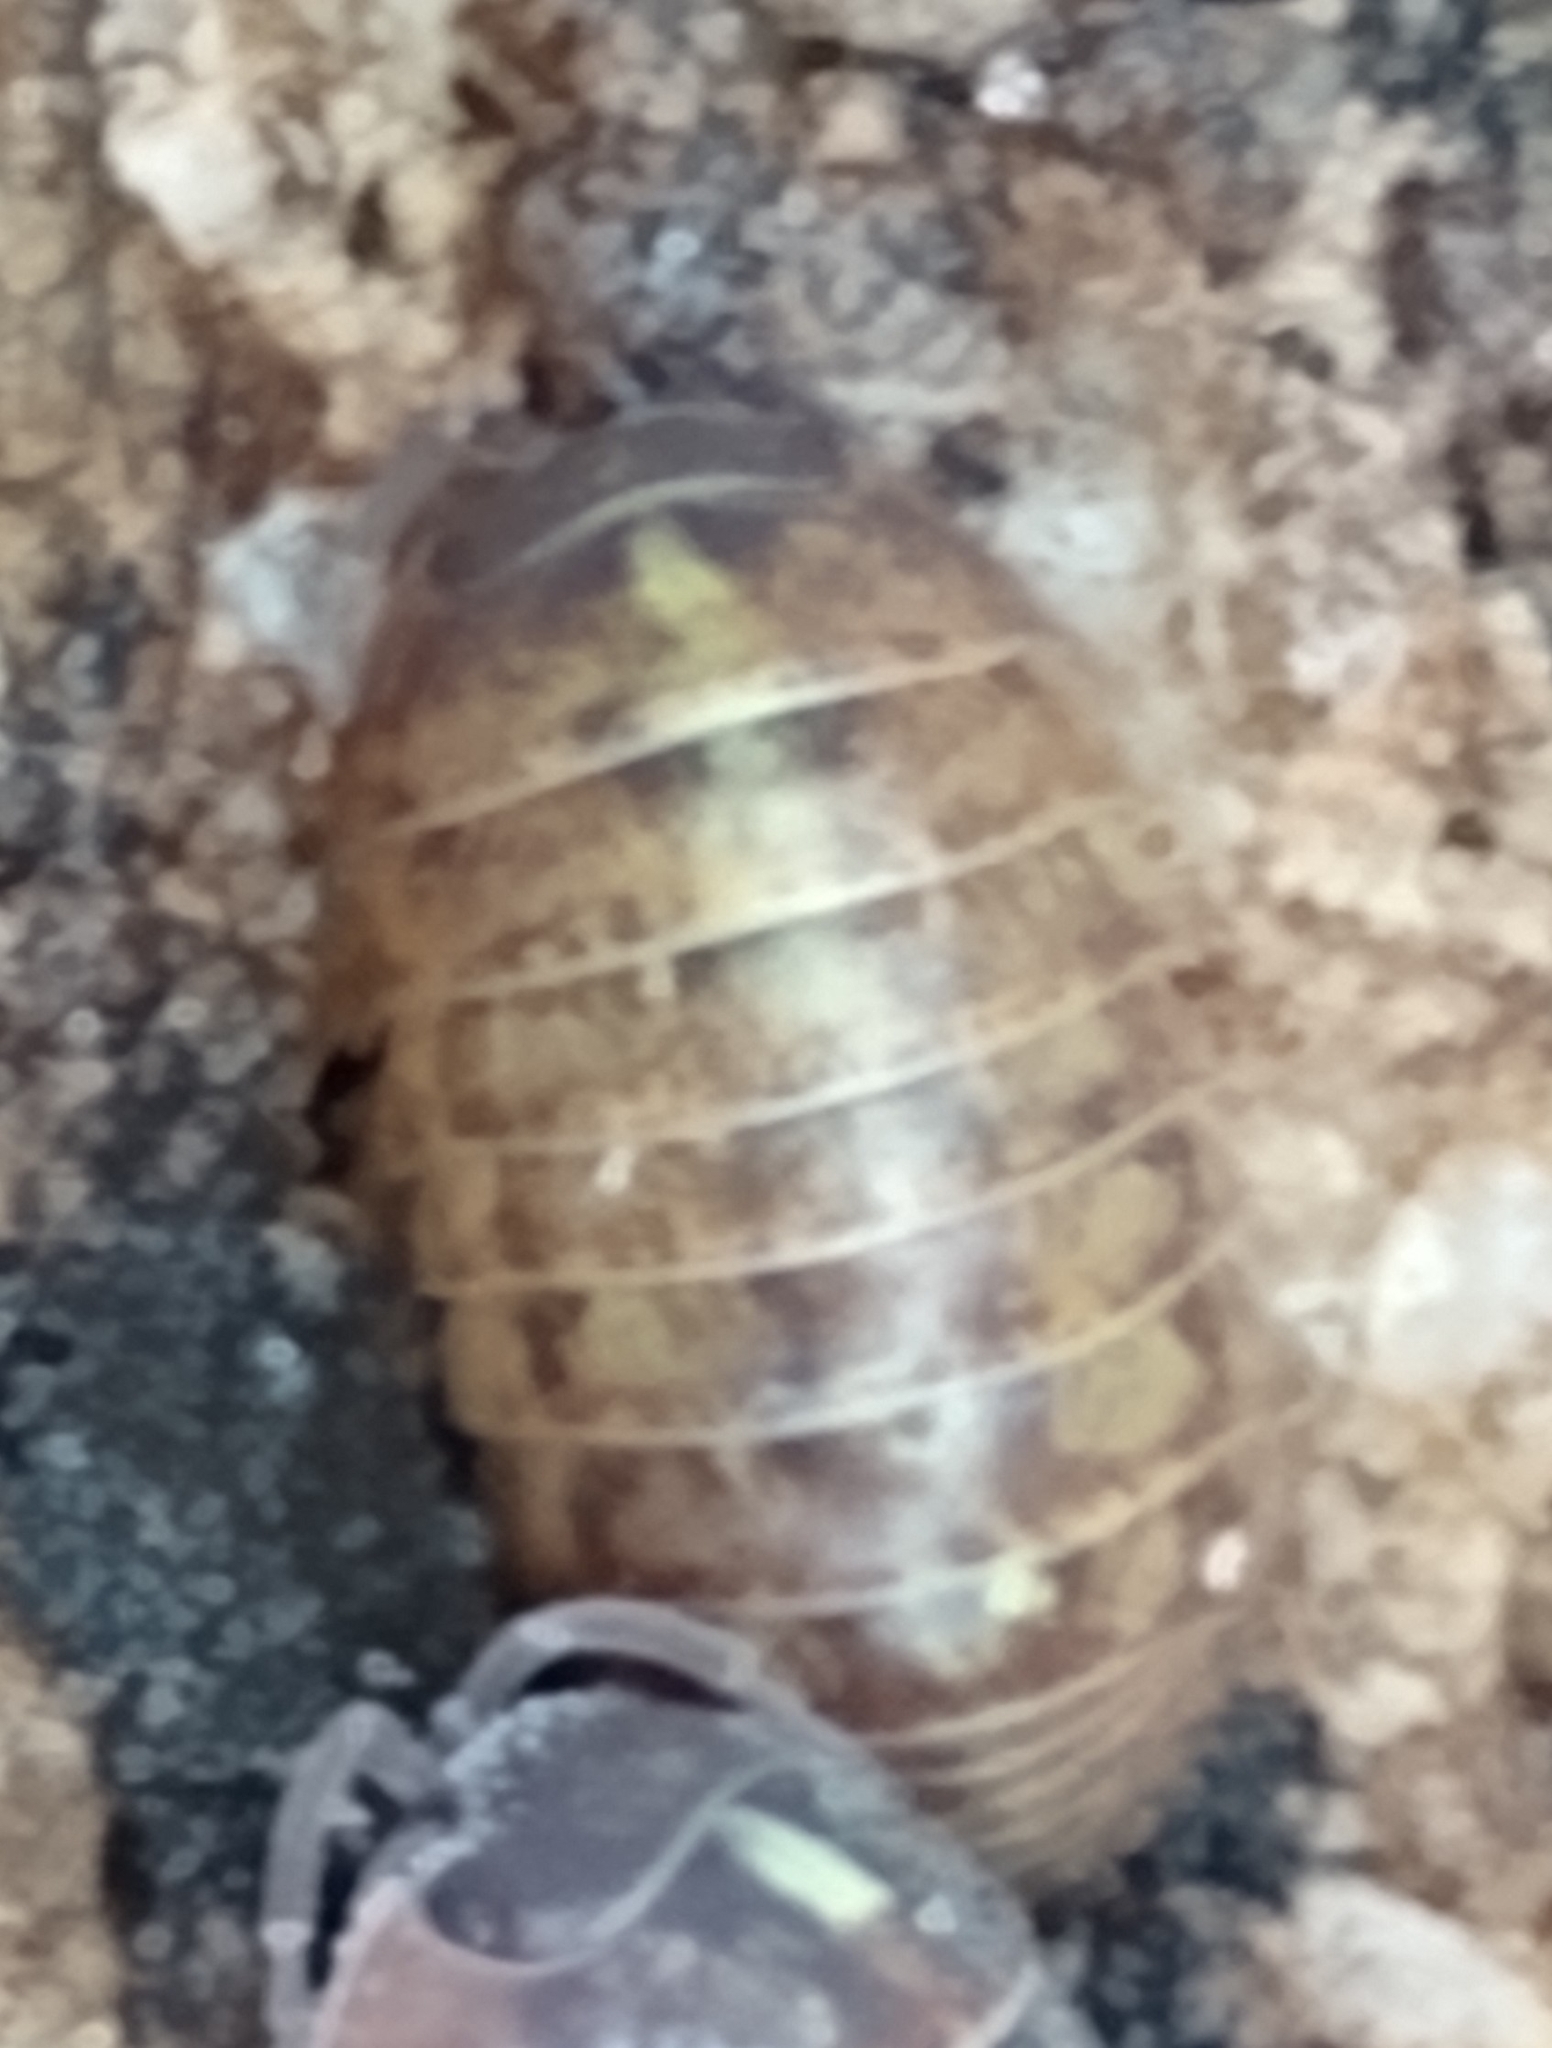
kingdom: Animalia
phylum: Arthropoda
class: Malacostraca
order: Isopoda
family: Armadillidiidae
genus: Armadillidium
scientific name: Armadillidium vulgare
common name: Common pill woodlouse
